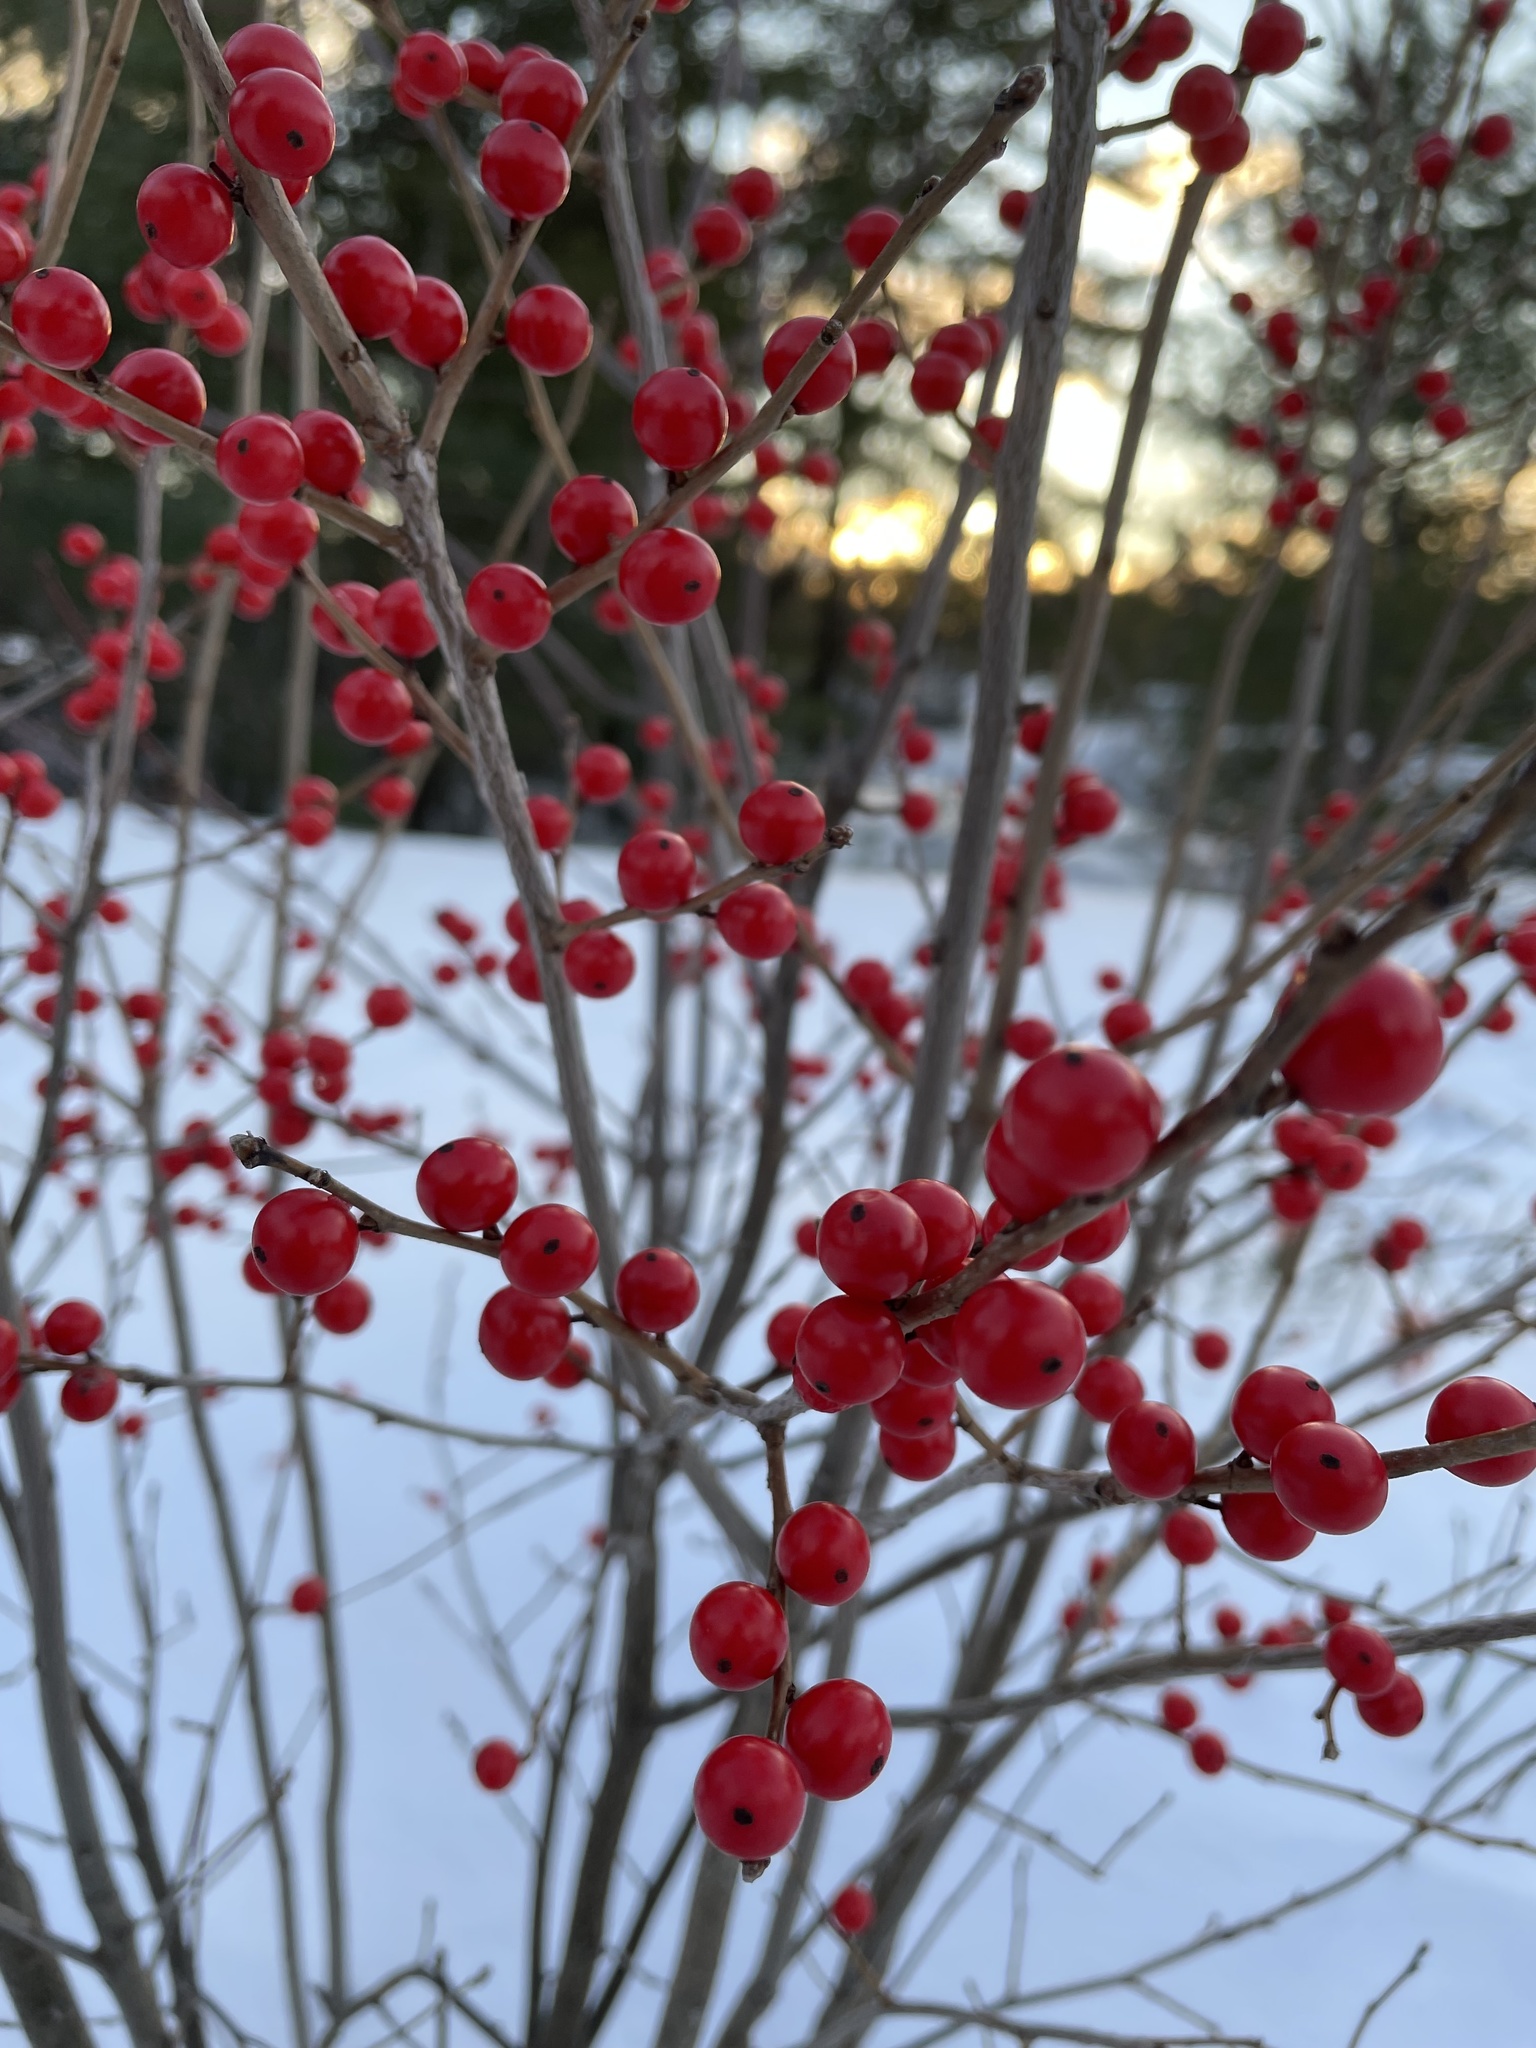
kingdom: Plantae
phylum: Tracheophyta
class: Magnoliopsida
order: Aquifoliales
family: Aquifoliaceae
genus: Ilex
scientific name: Ilex verticillata
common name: Virginia winterberry
